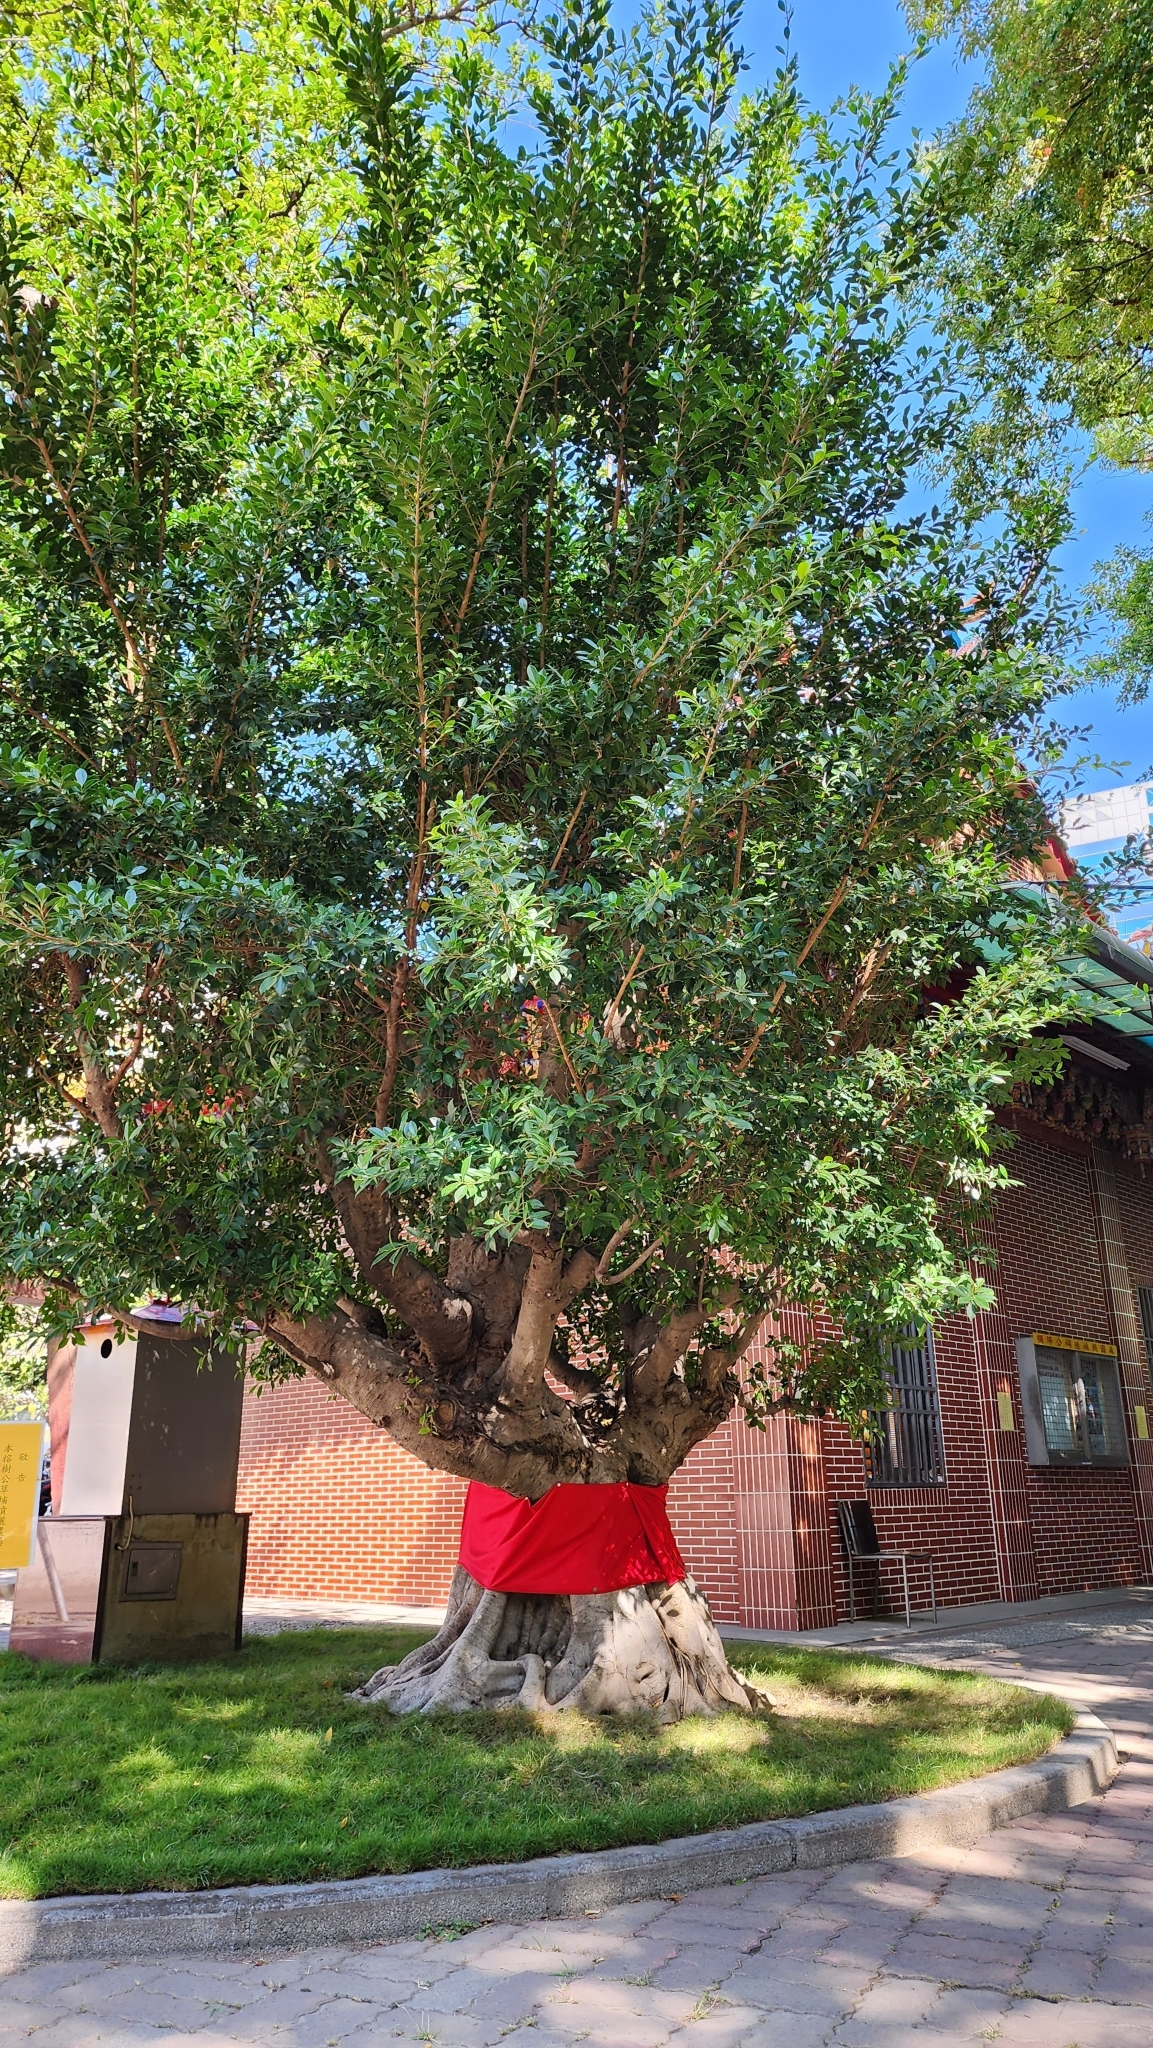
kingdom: Plantae
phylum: Tracheophyta
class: Magnoliopsida
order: Rosales
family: Moraceae
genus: Ficus
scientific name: Ficus microcarpa
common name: Chinese banyan
